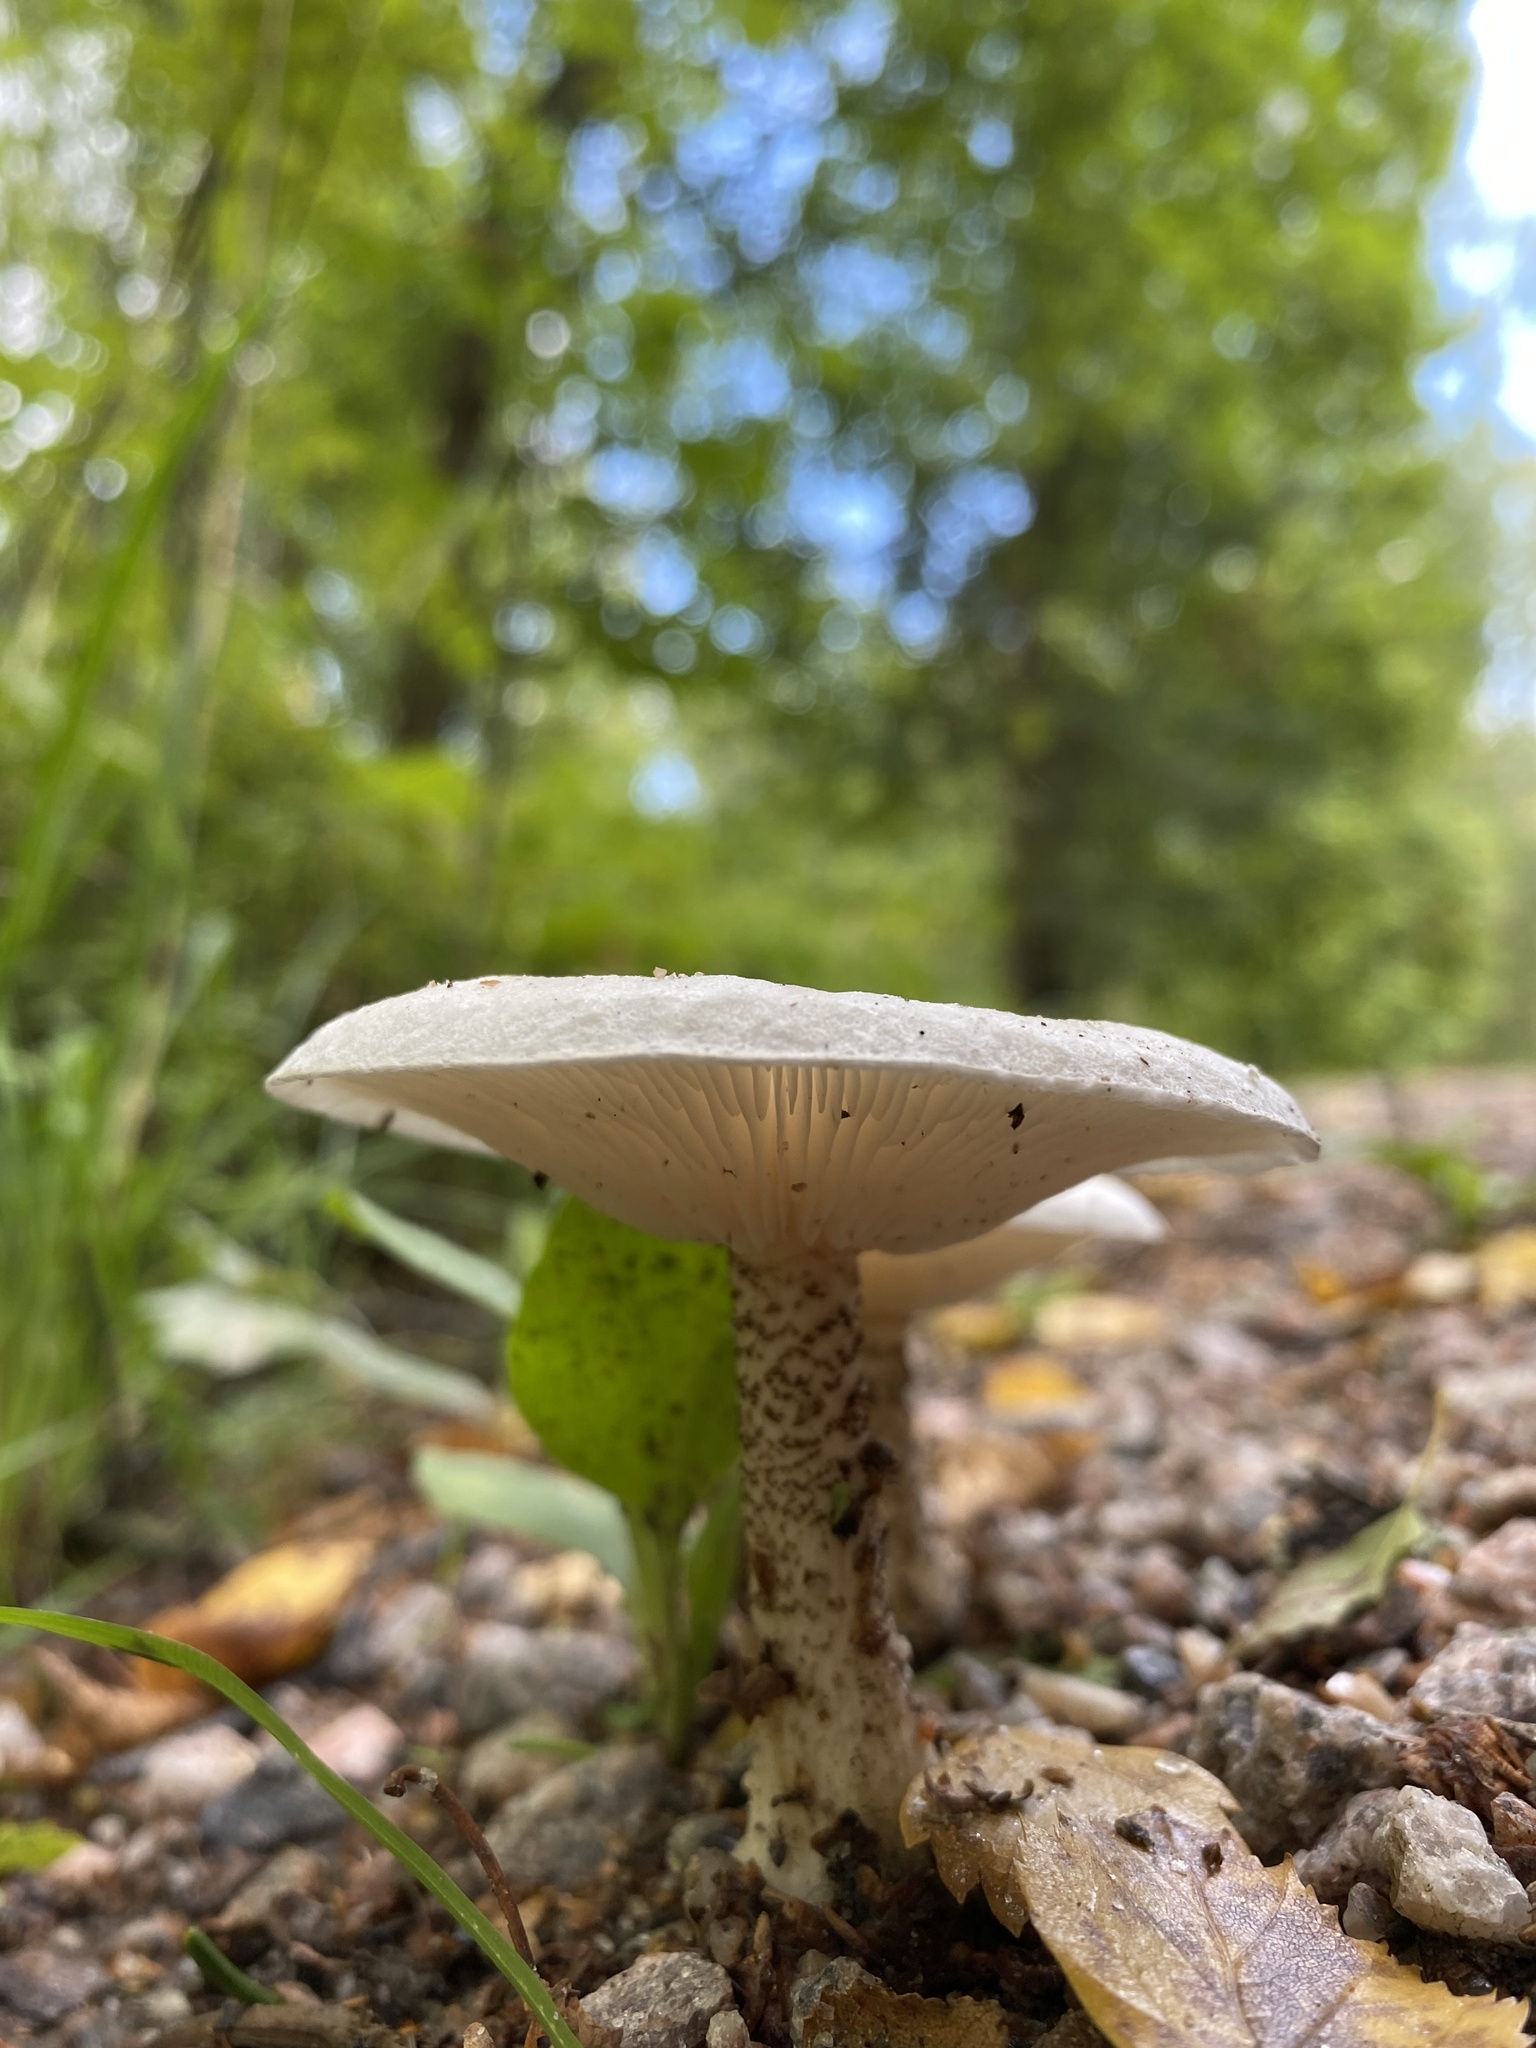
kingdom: Fungi
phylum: Basidiomycota
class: Agaricomycetes
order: Agaricales
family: Tricholomataceae
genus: Melanoleuca
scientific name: Melanoleuca verrucipes
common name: Warty cavalier
